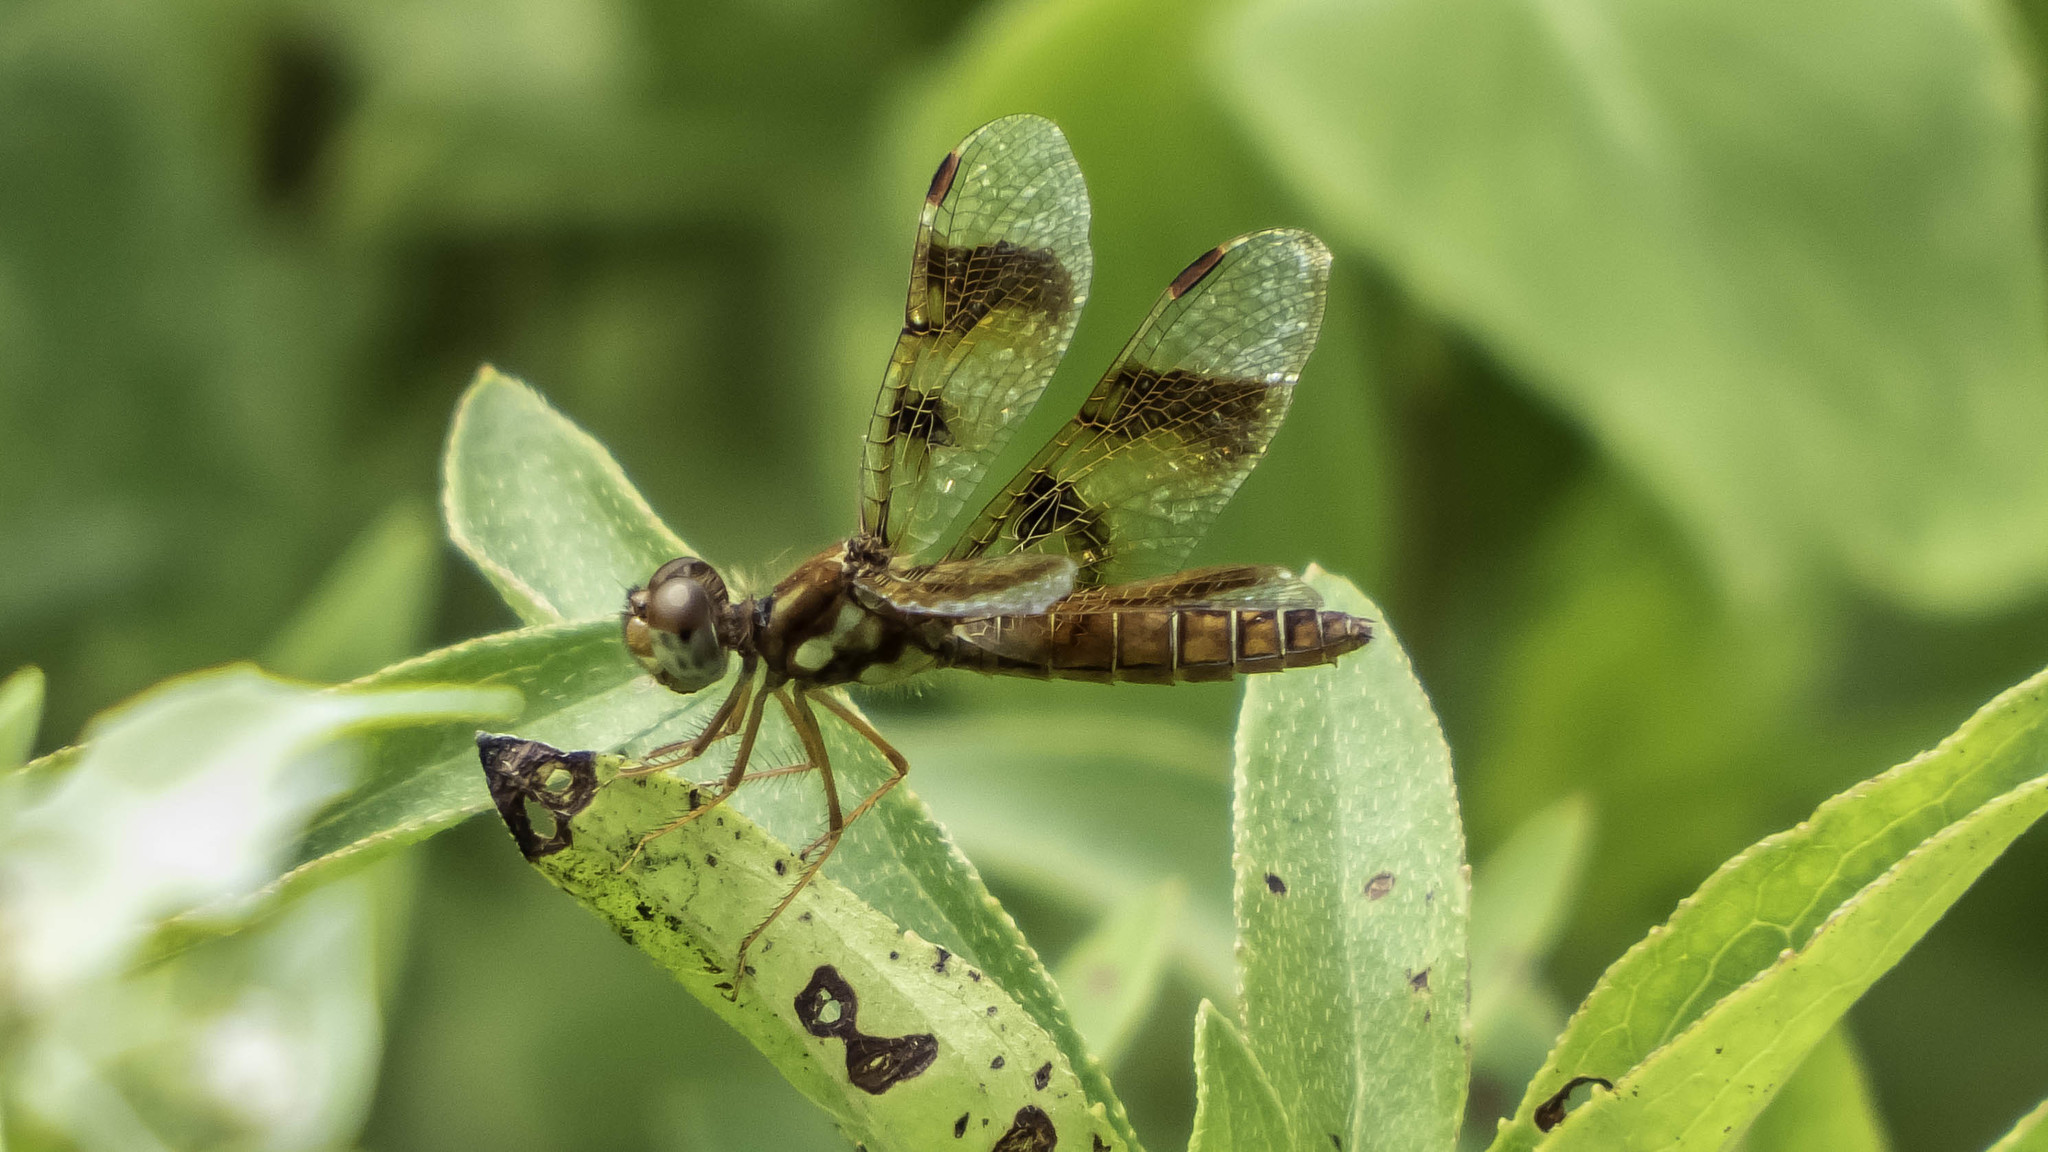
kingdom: Animalia
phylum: Arthropoda
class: Insecta
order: Odonata
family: Libellulidae
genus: Perithemis
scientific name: Perithemis tenera
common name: Eastern amberwing
